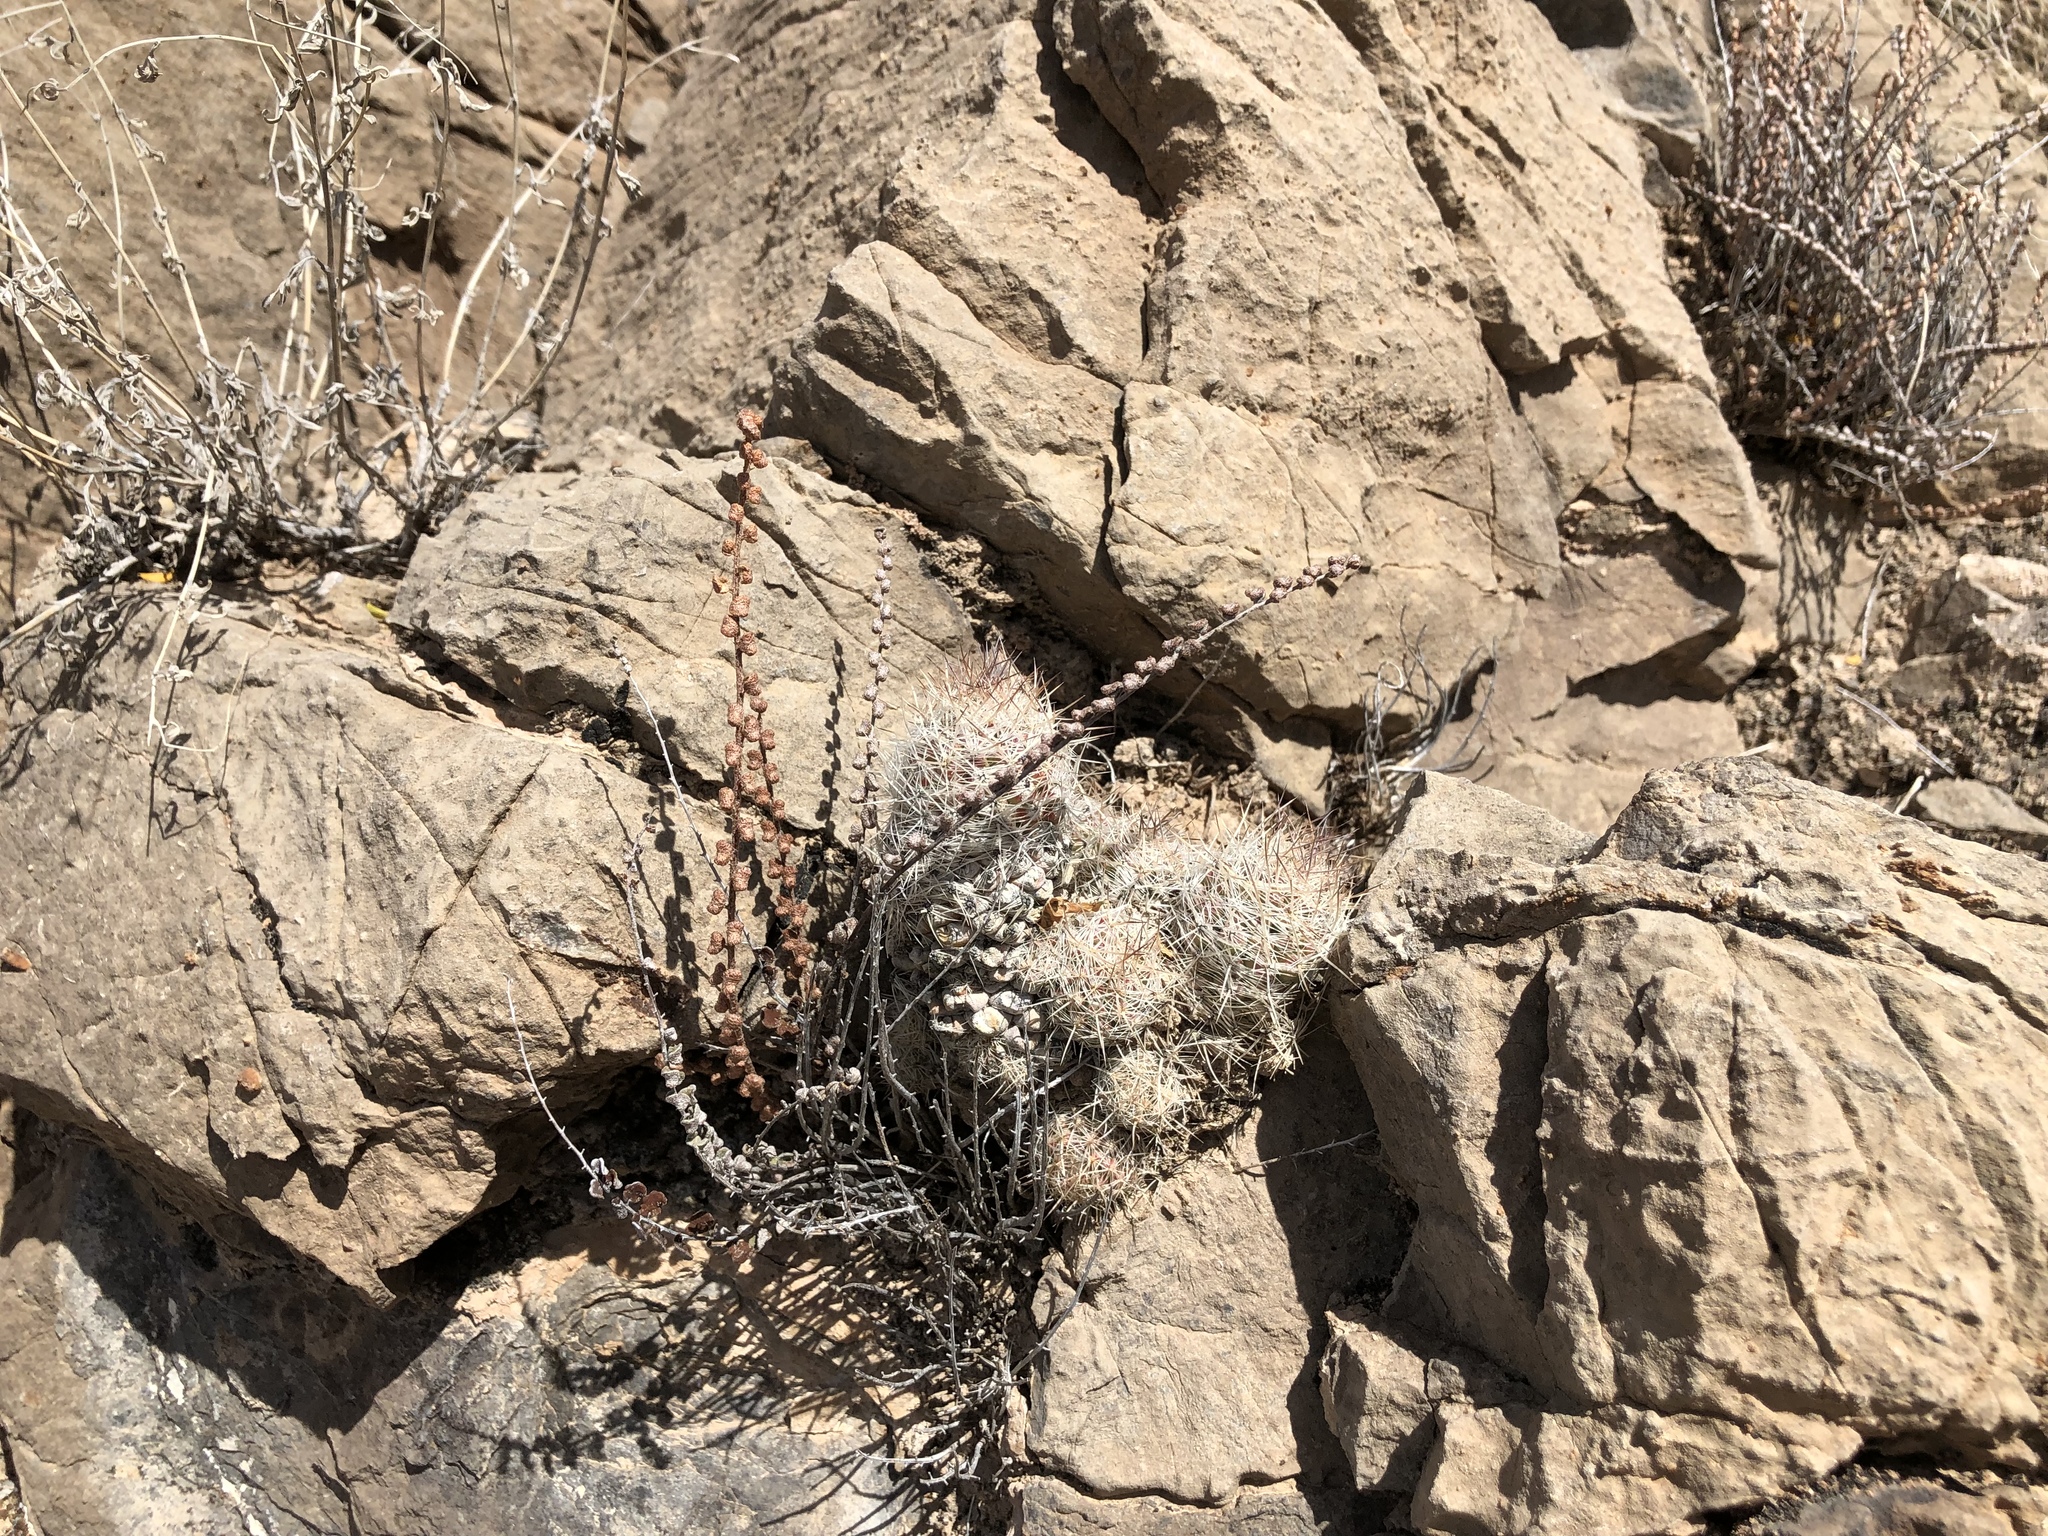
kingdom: Plantae
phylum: Tracheophyta
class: Magnoliopsida
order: Caryophyllales
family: Cactaceae
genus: Pelecyphora
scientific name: Pelecyphora tuberculosa
